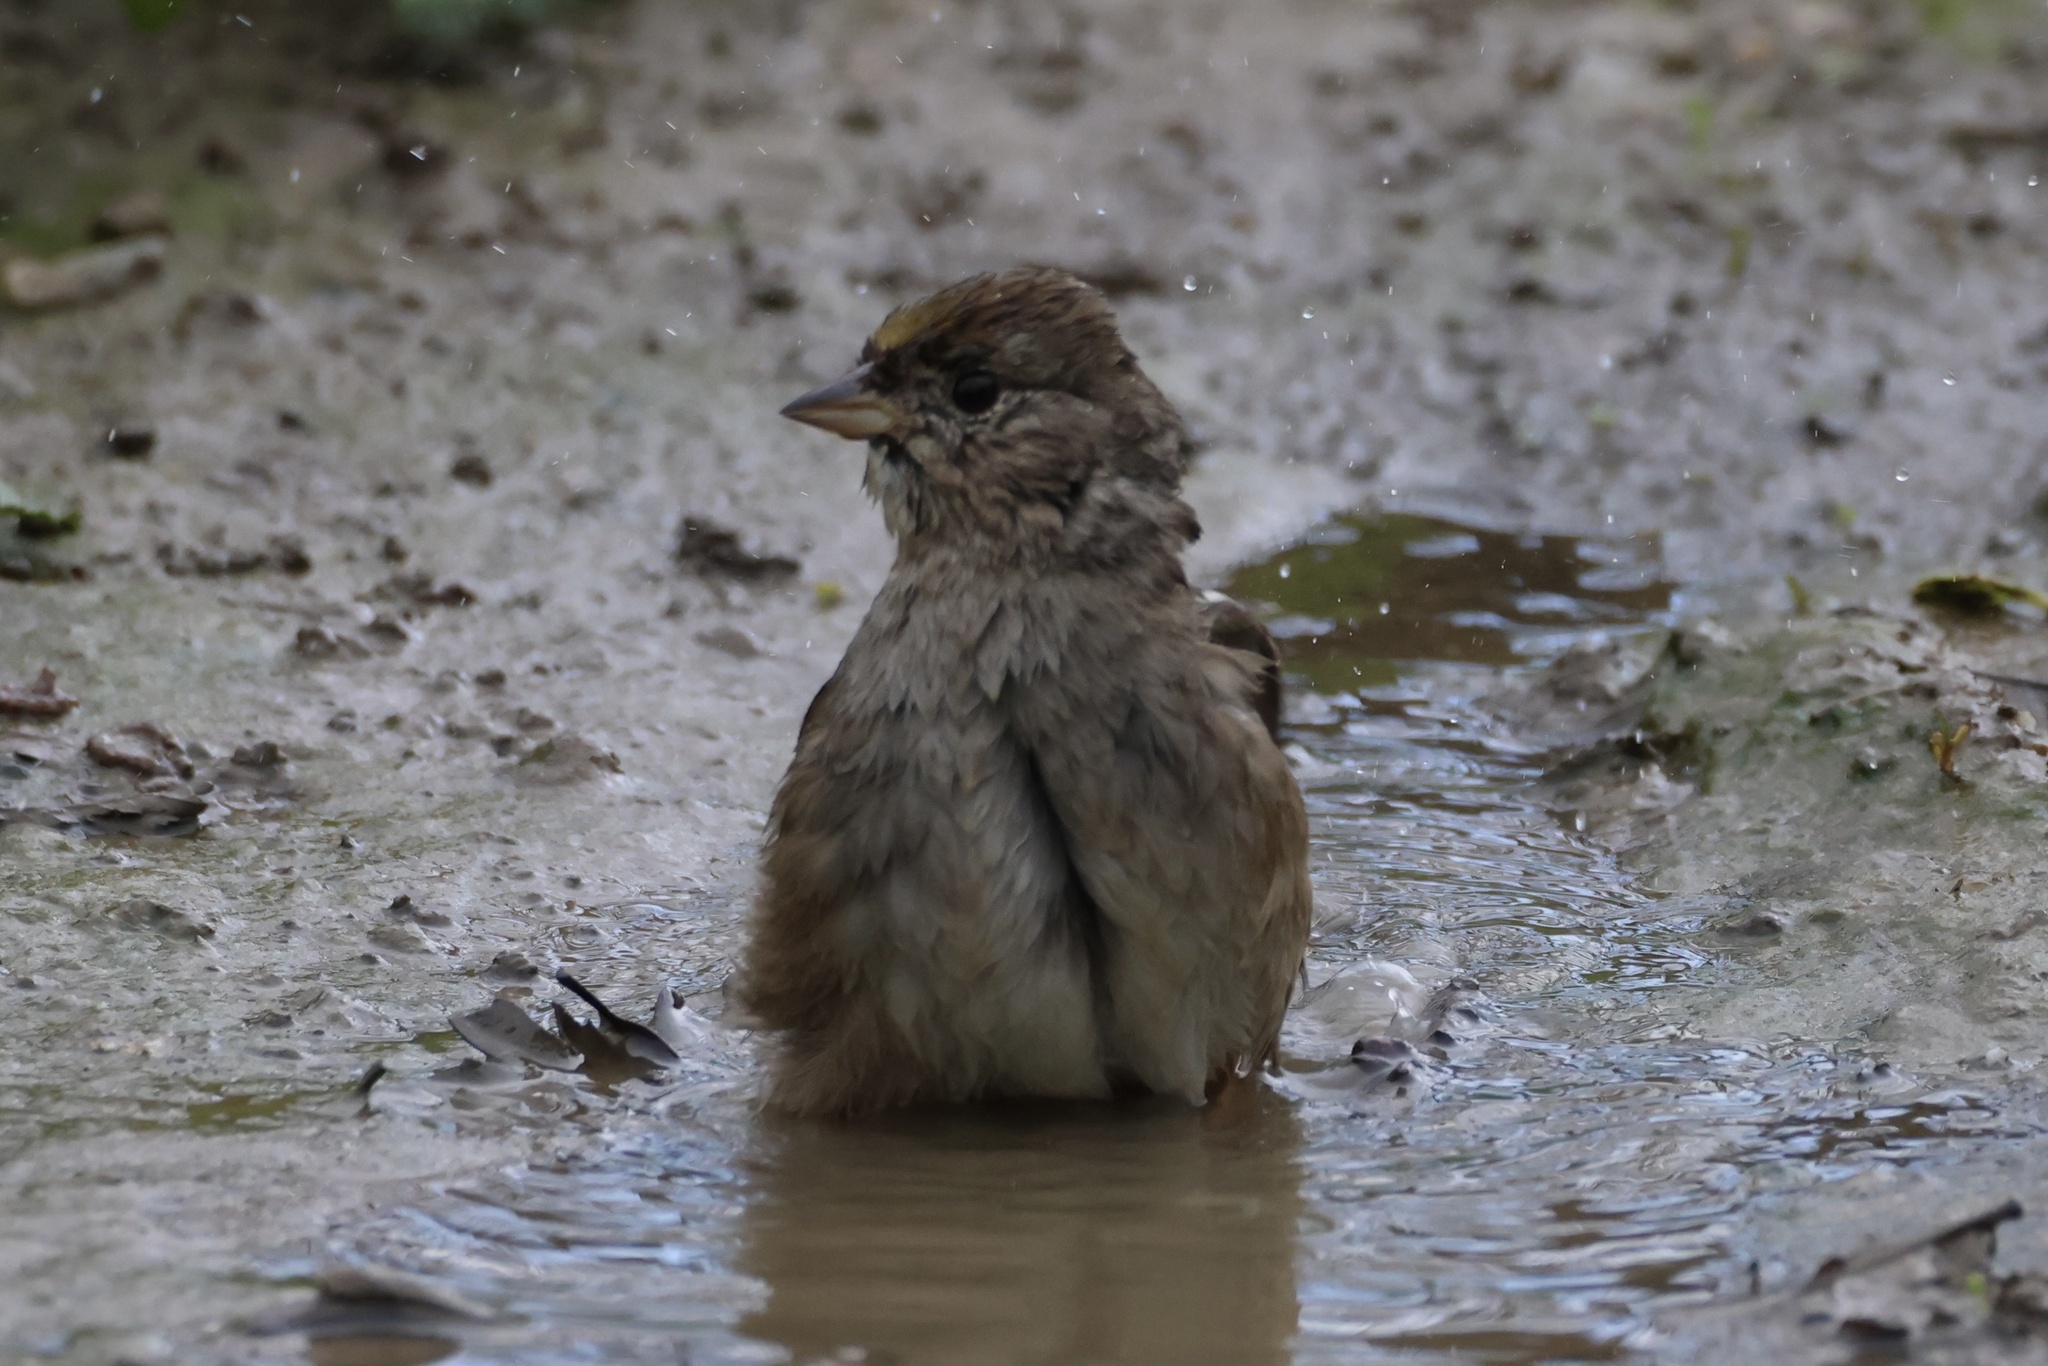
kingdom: Animalia
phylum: Chordata
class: Aves
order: Passeriformes
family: Passerellidae
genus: Zonotrichia
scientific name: Zonotrichia atricapilla
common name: Golden-crowned sparrow
